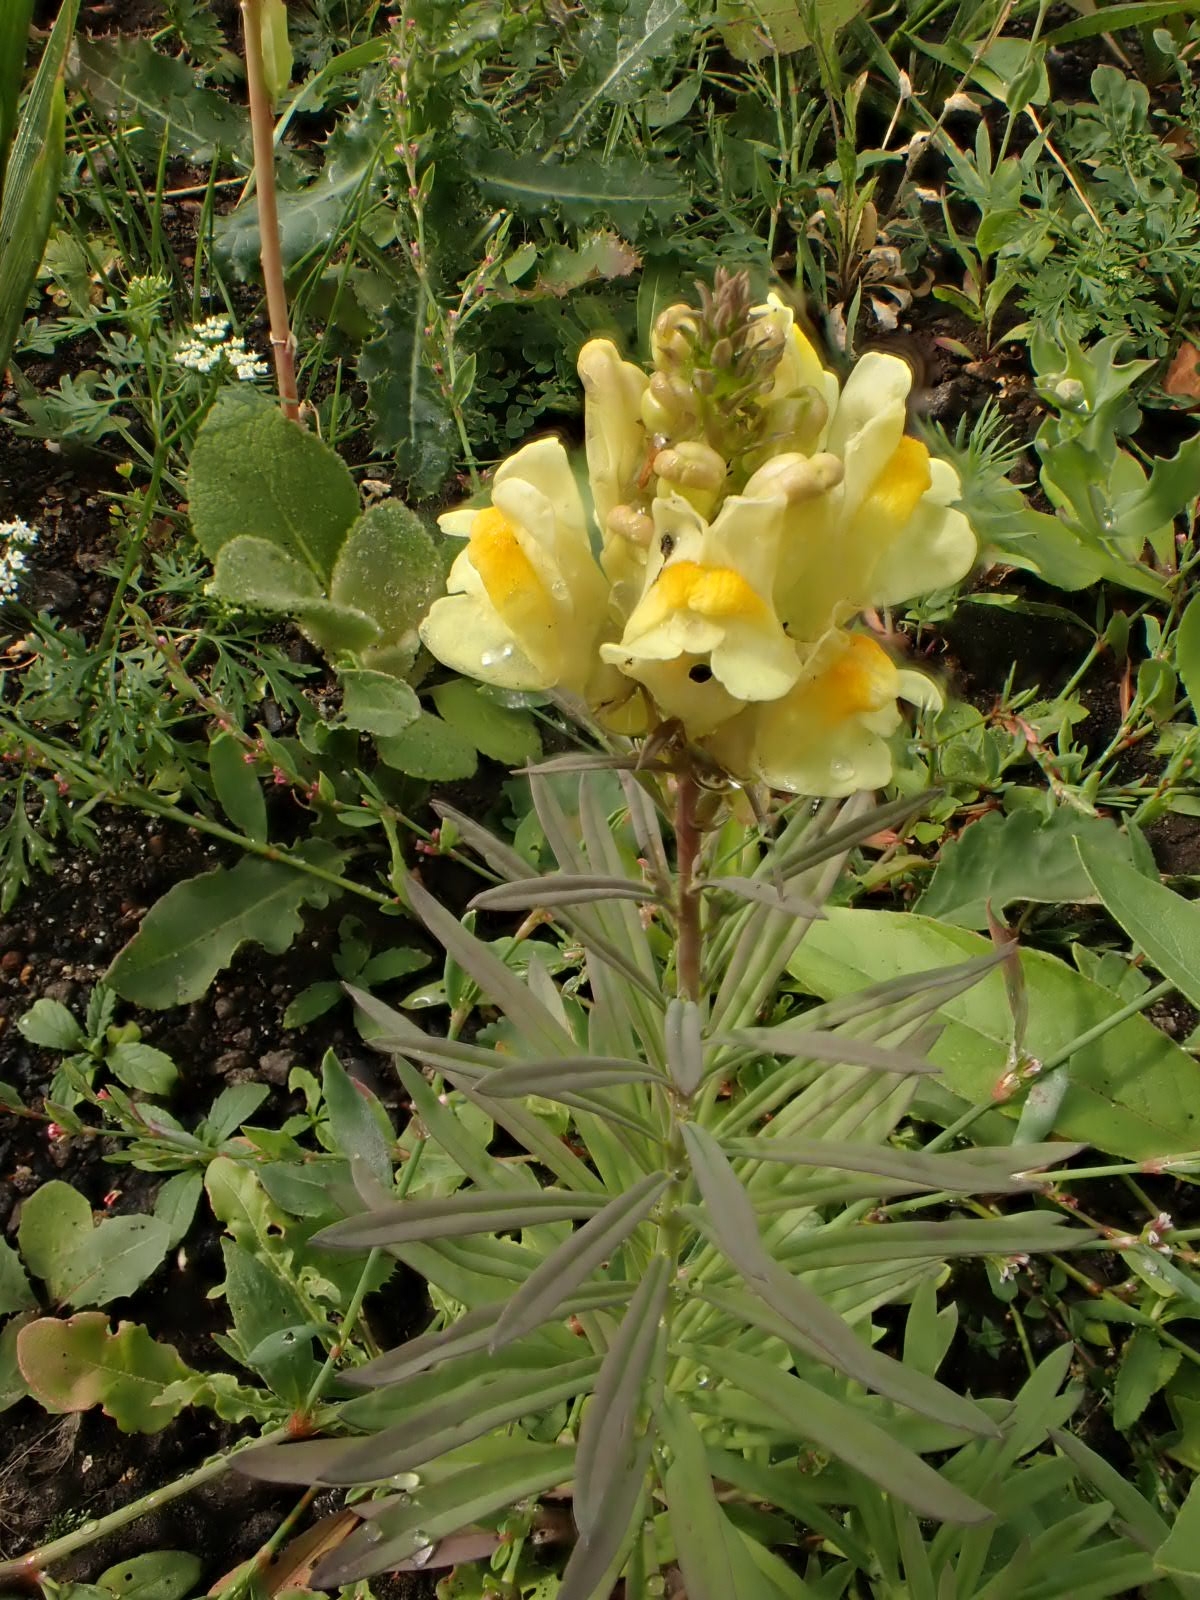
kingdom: Plantae
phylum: Tracheophyta
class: Magnoliopsida
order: Lamiales
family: Plantaginaceae
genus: Linaria
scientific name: Linaria vulgaris
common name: Butter and eggs
